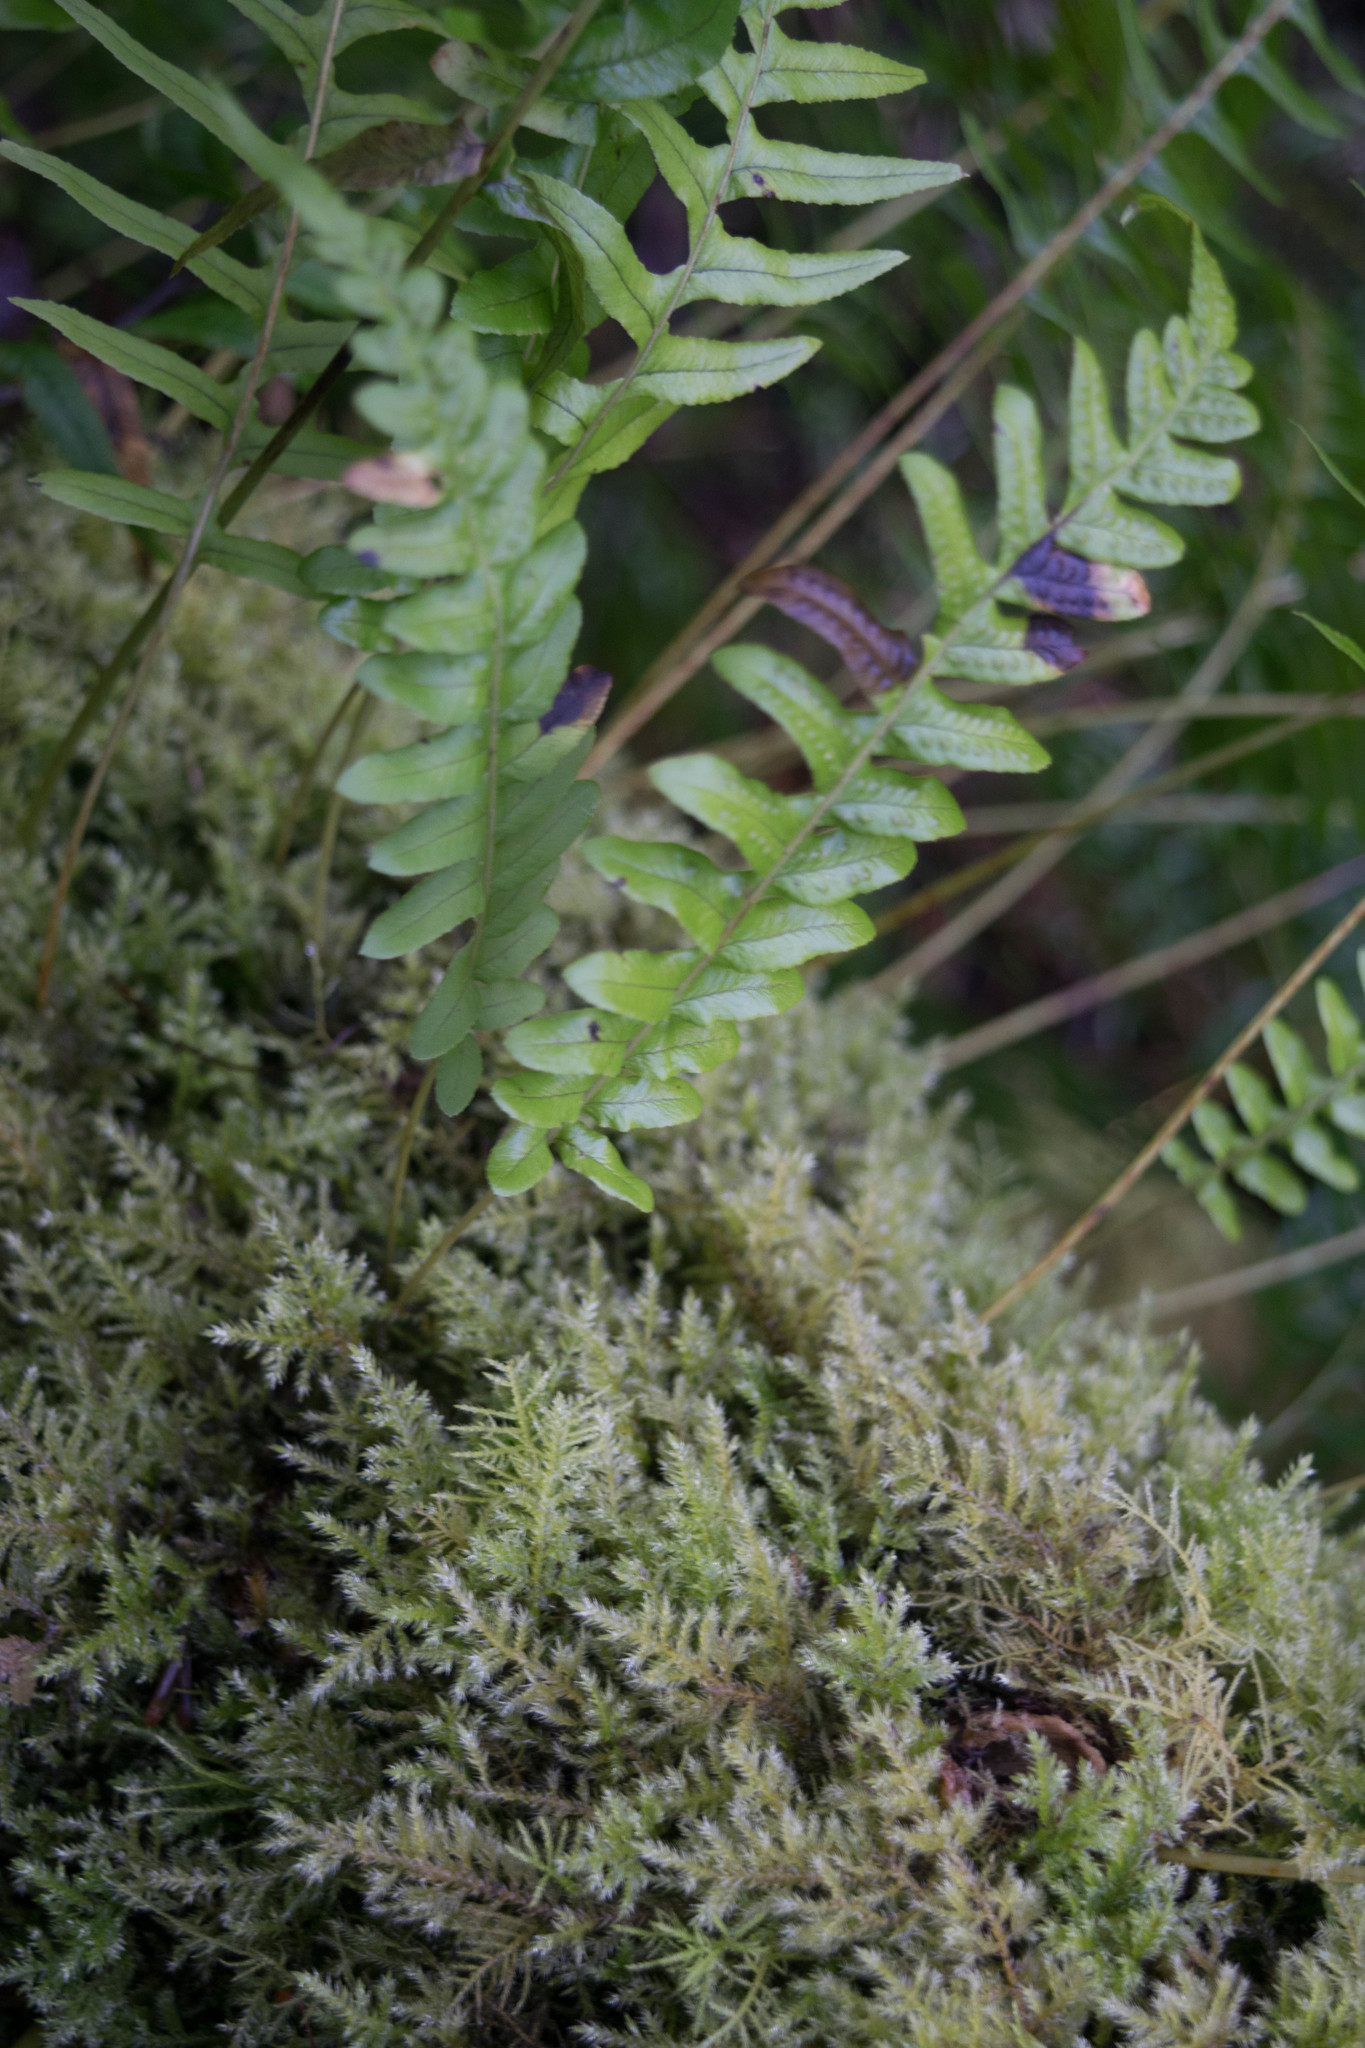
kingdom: Plantae
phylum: Tracheophyta
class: Polypodiopsida
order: Polypodiales
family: Polypodiaceae
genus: Polypodium
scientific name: Polypodium glycyrrhiza
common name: Licorice fern
